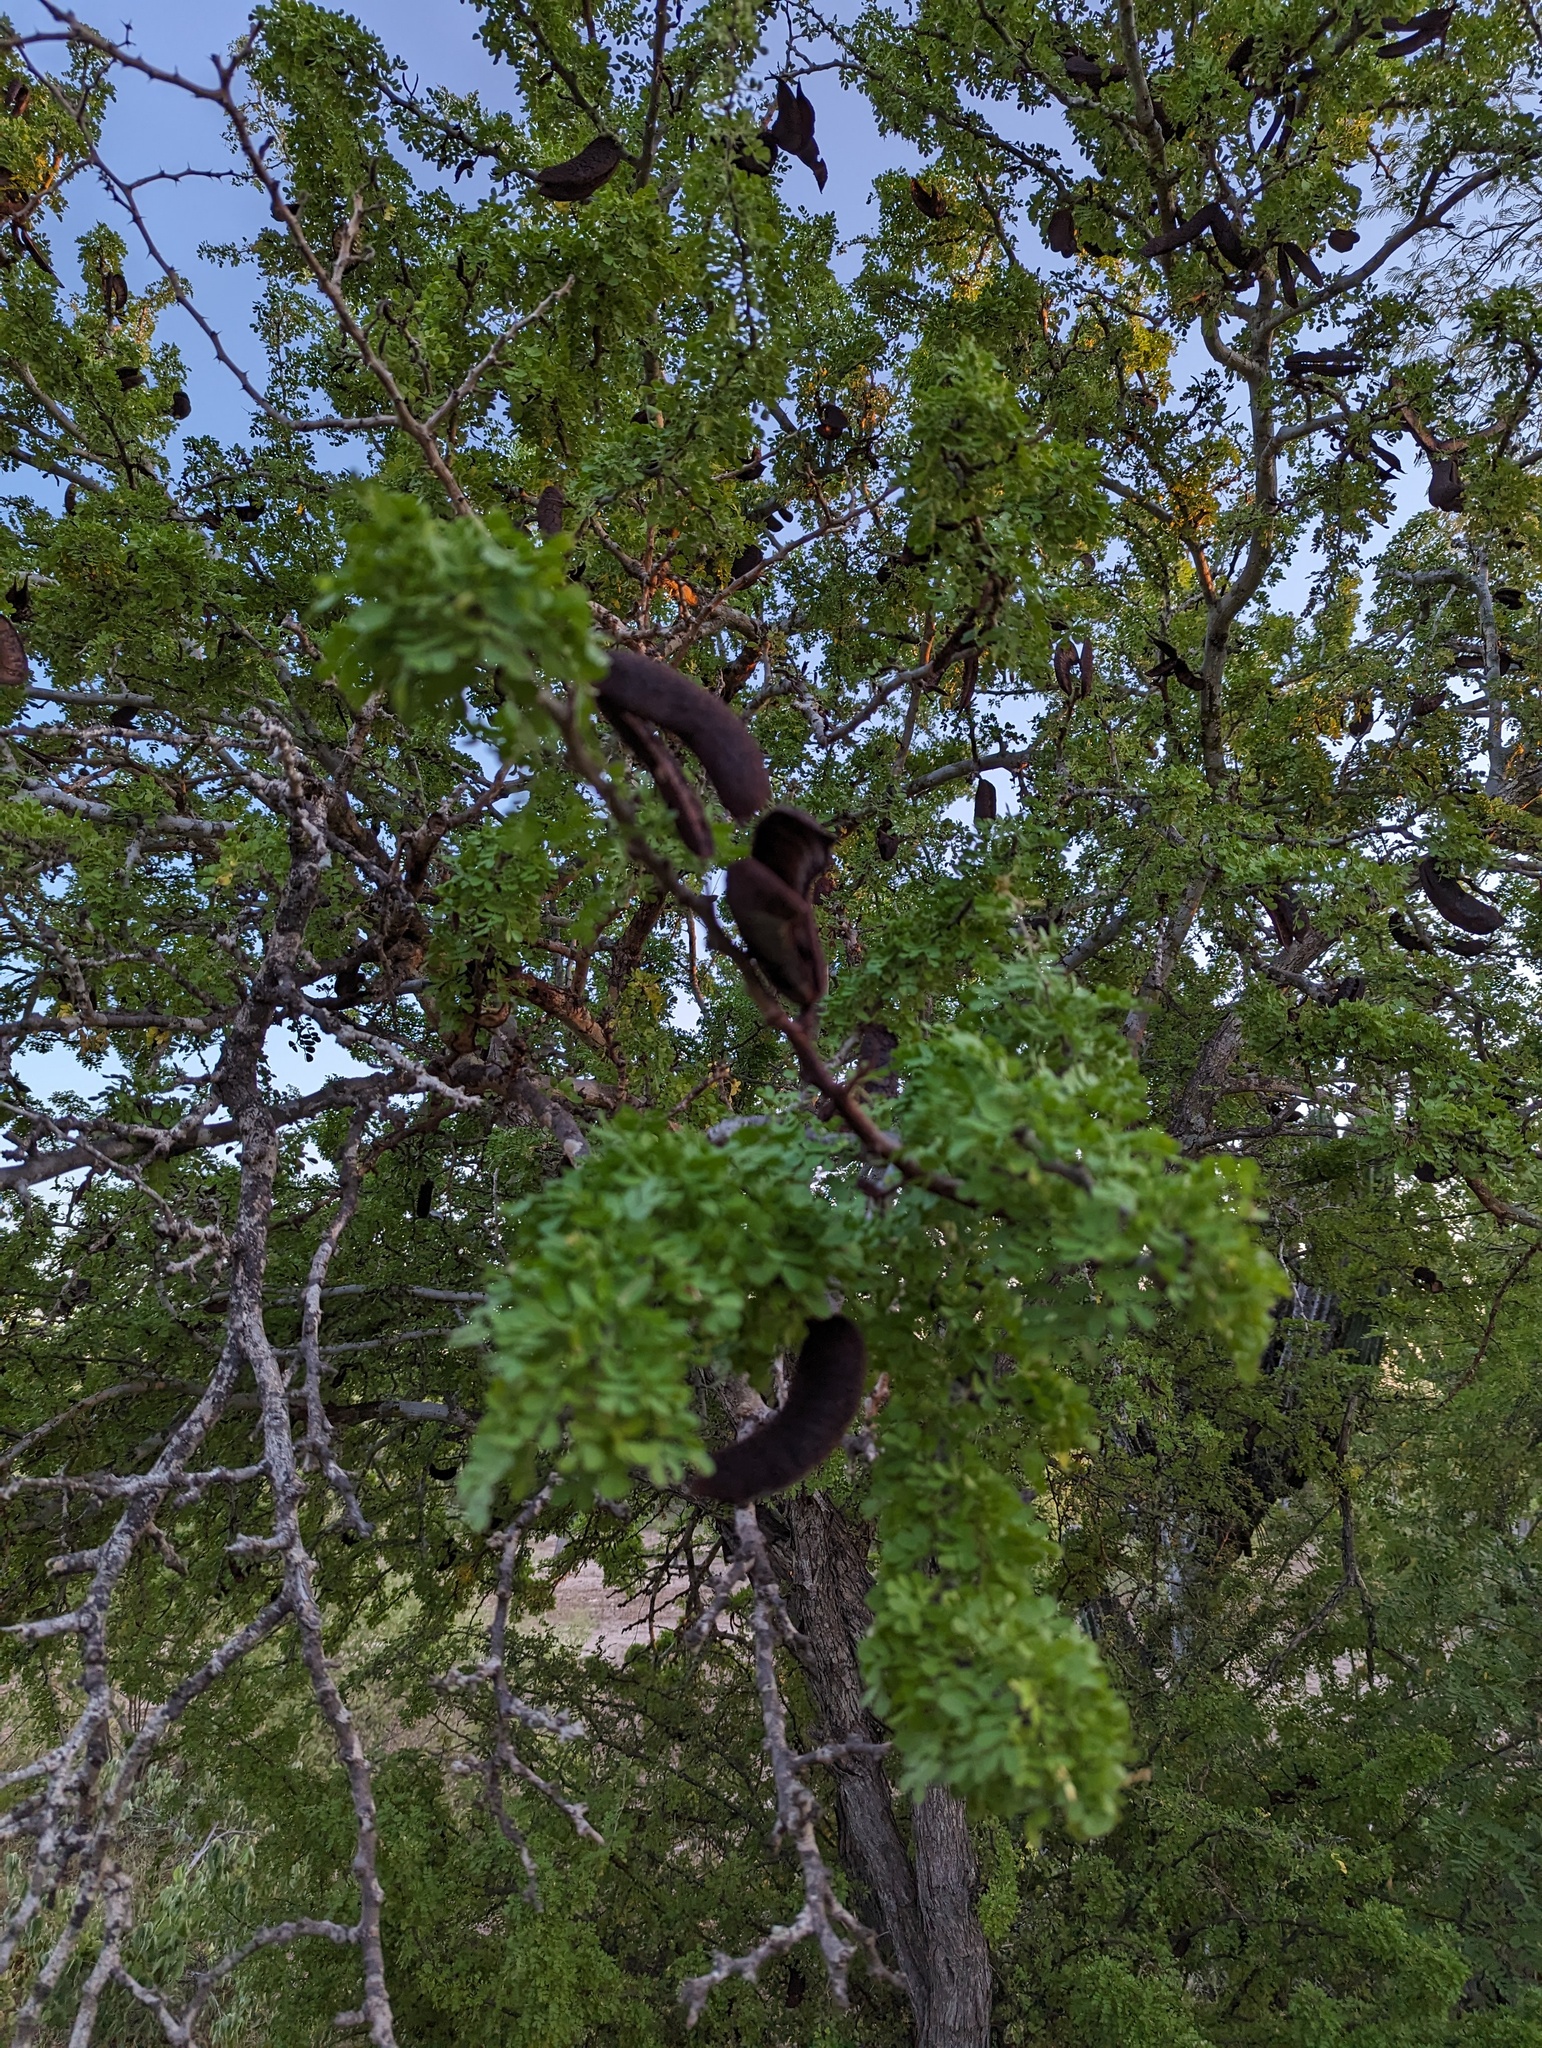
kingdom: Plantae
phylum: Tracheophyta
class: Magnoliopsida
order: Fabales
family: Fabaceae
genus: Ebenopsis
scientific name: Ebenopsis confinis
